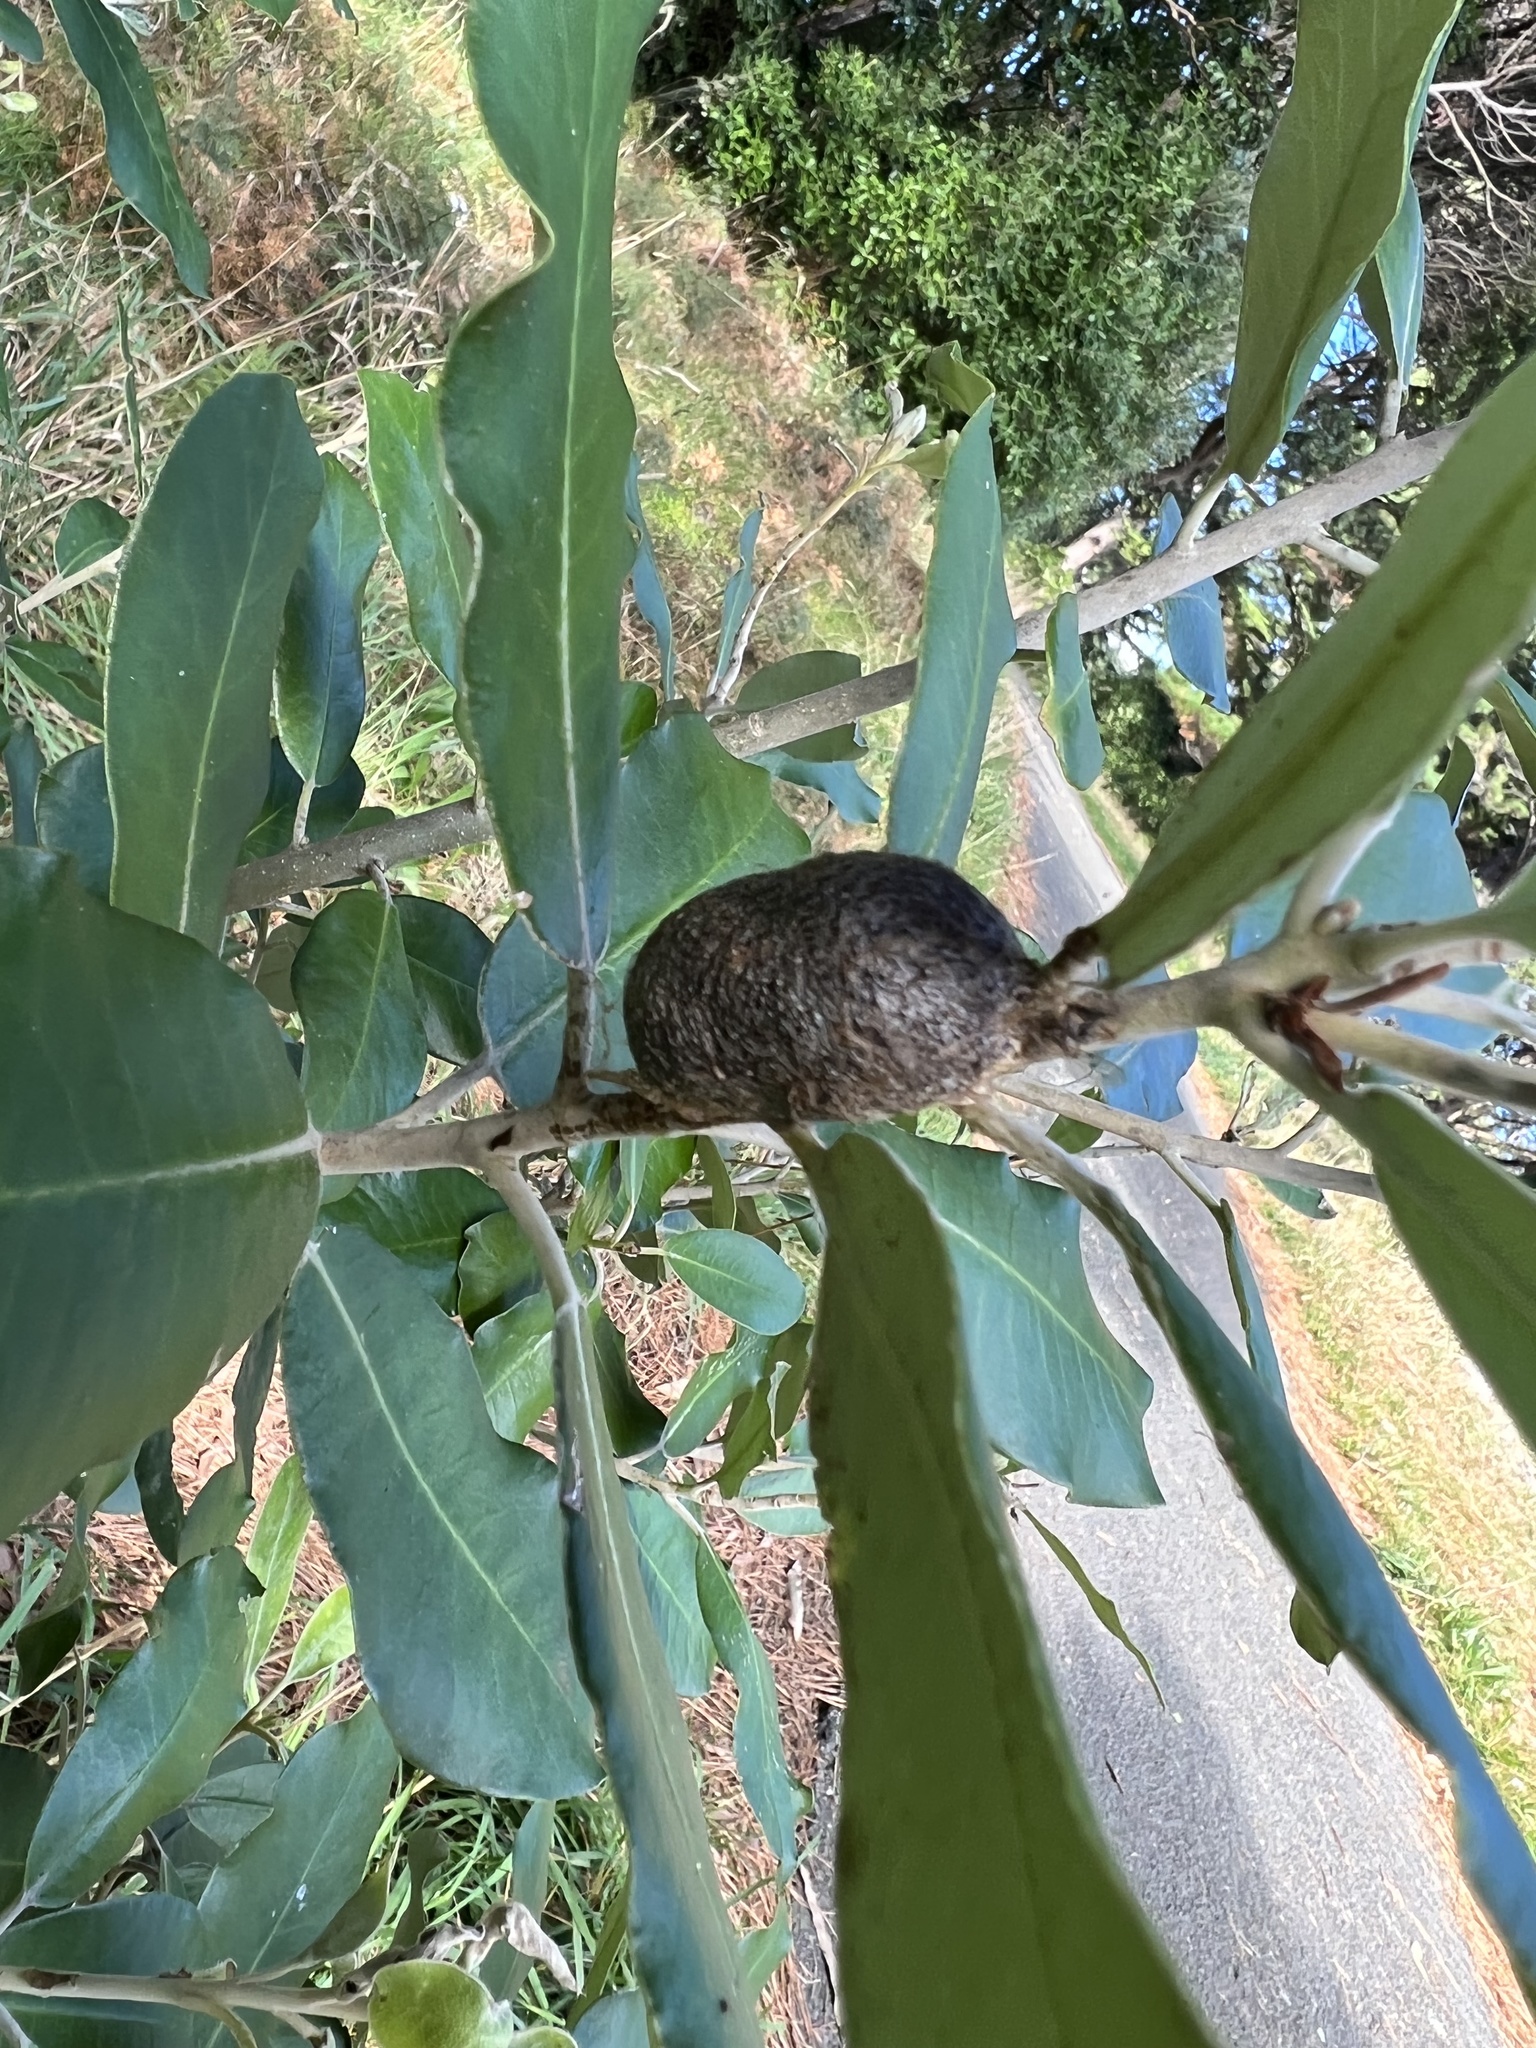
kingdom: Animalia
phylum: Arthropoda
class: Insecta
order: Lepidoptera
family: Saturniidae
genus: Opodiphthera
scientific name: Opodiphthera
